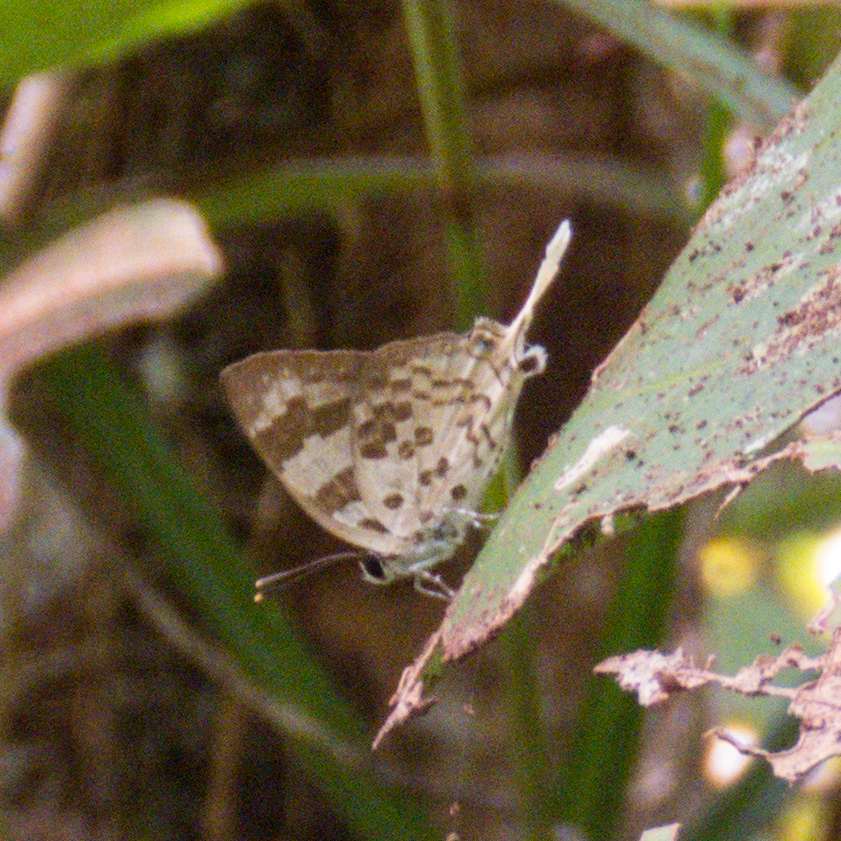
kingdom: Animalia
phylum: Arthropoda
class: Insecta
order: Lepidoptera
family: Lycaenidae
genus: Bindahara
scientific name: Bindahara phocides
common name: Sword-tailed flash
